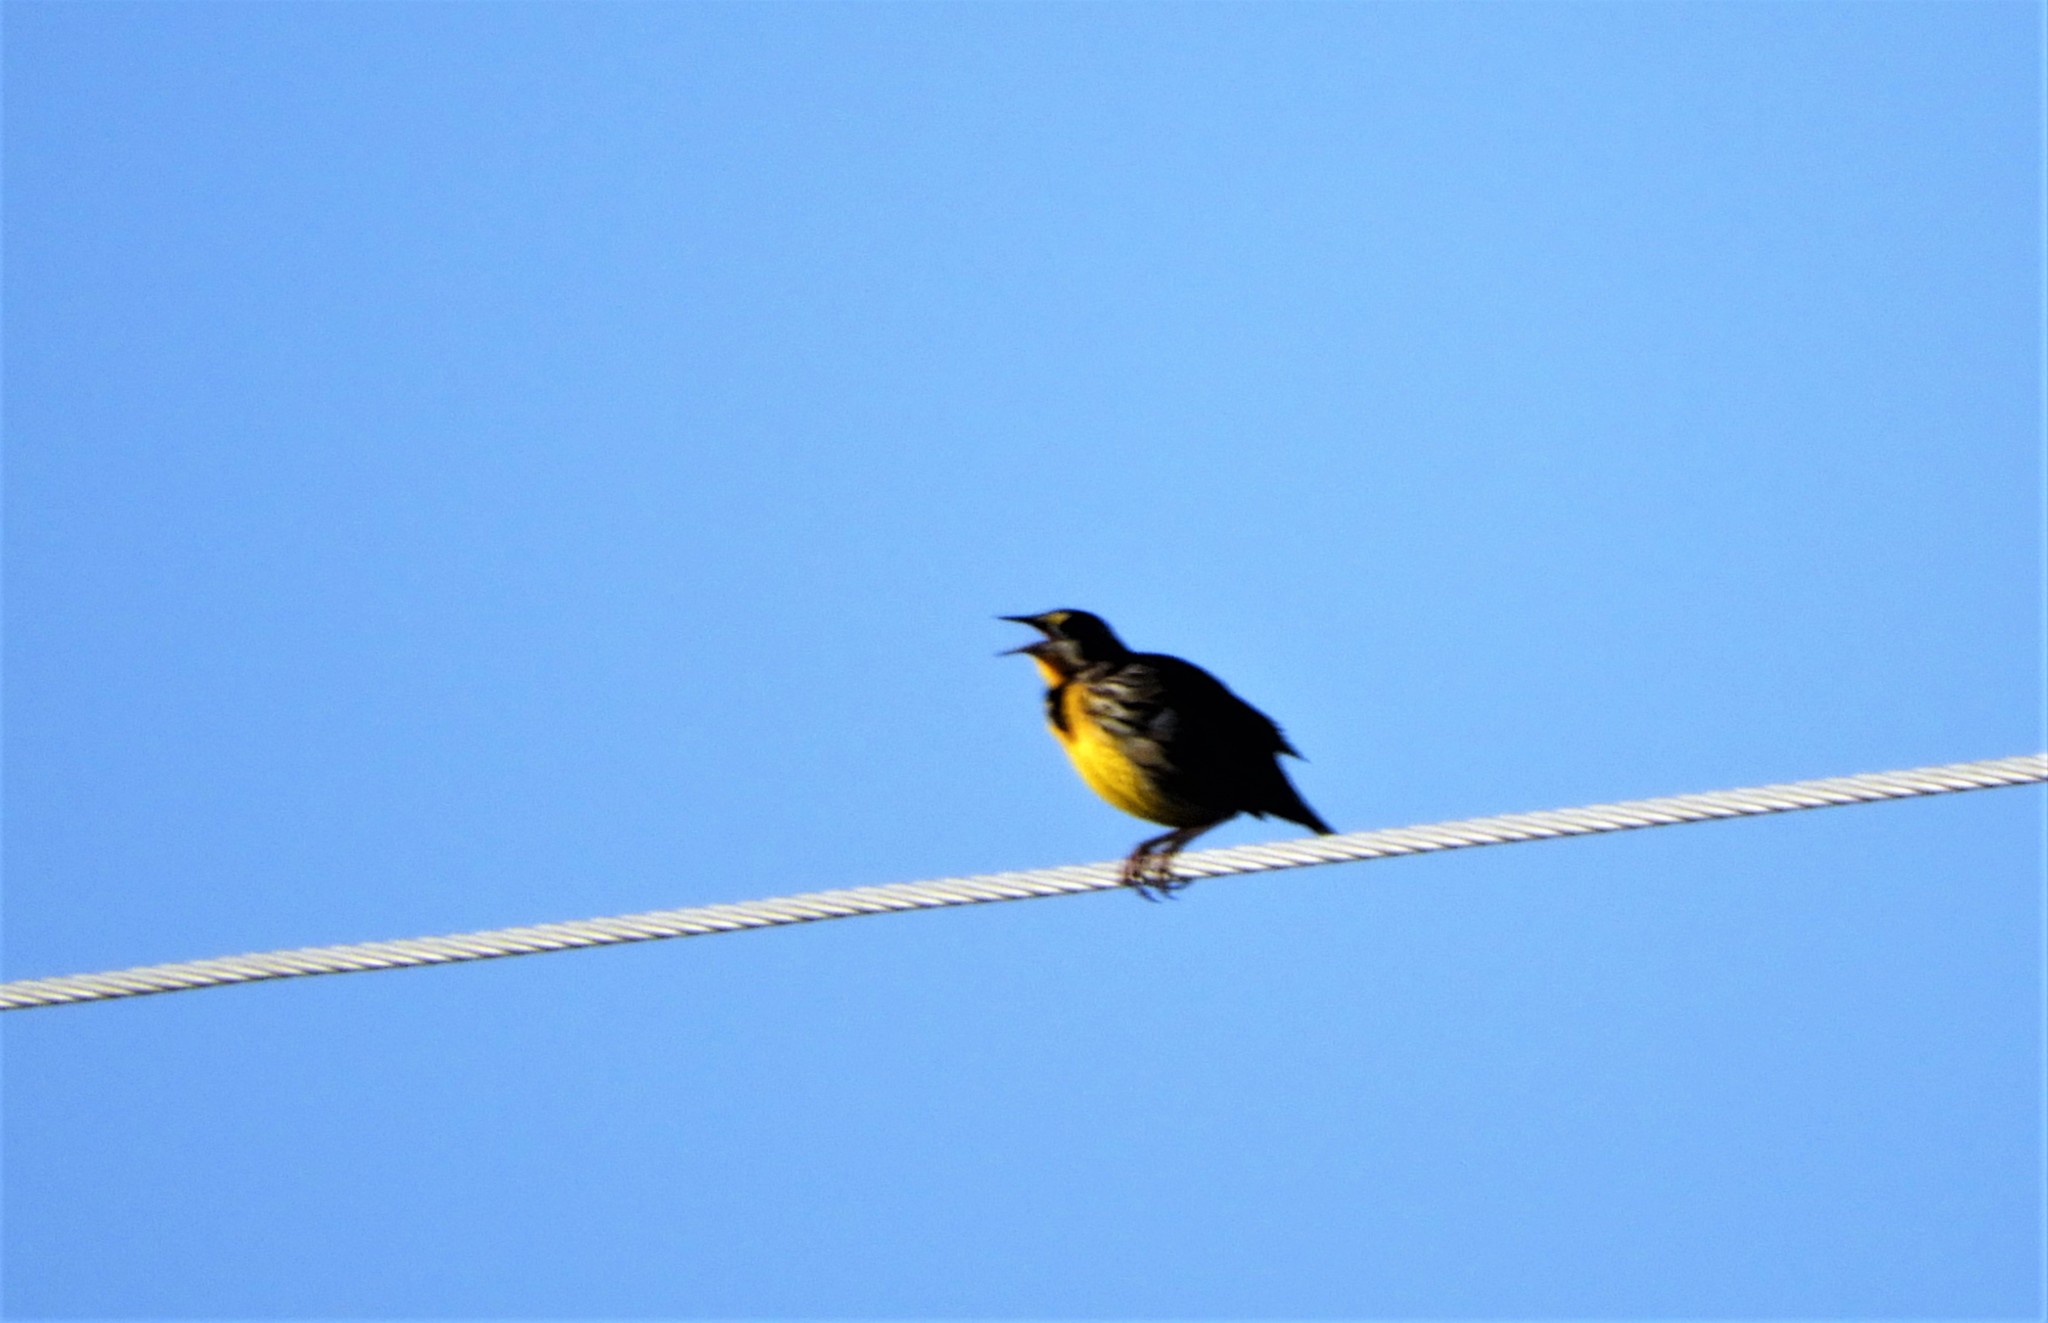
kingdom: Animalia
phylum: Chordata
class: Aves
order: Passeriformes
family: Icteridae
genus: Sturnella
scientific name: Sturnella magna
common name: Eastern meadowlark
